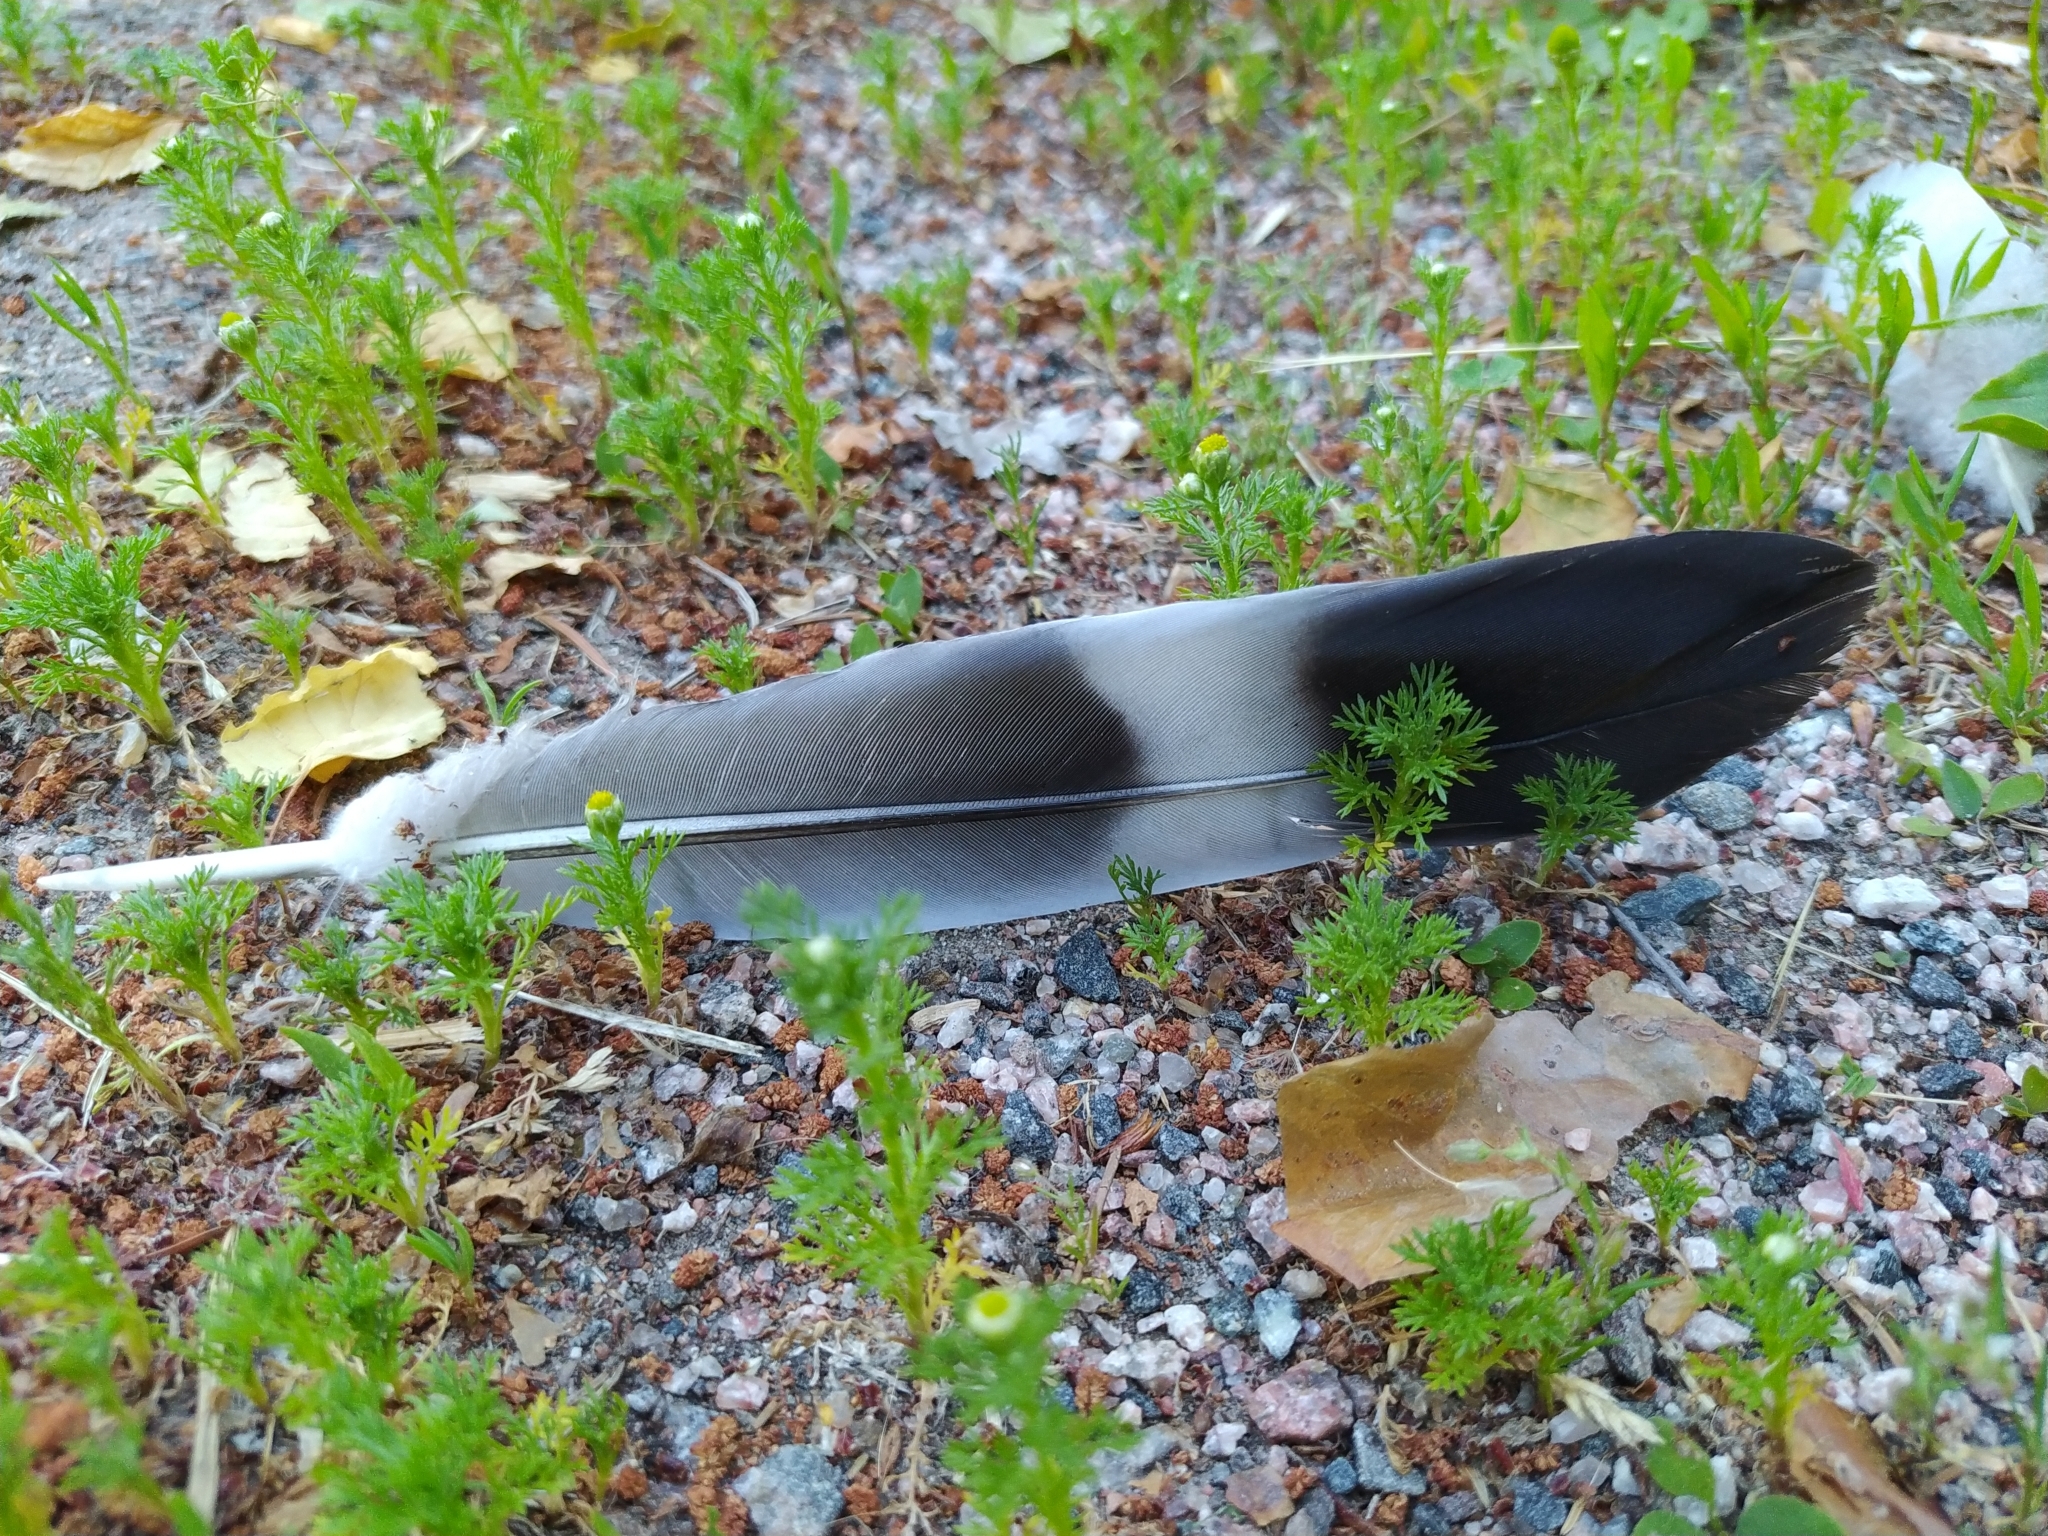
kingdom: Animalia
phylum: Chordata
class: Aves
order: Columbiformes
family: Columbidae
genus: Columba
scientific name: Columba palumbus
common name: Common wood pigeon
